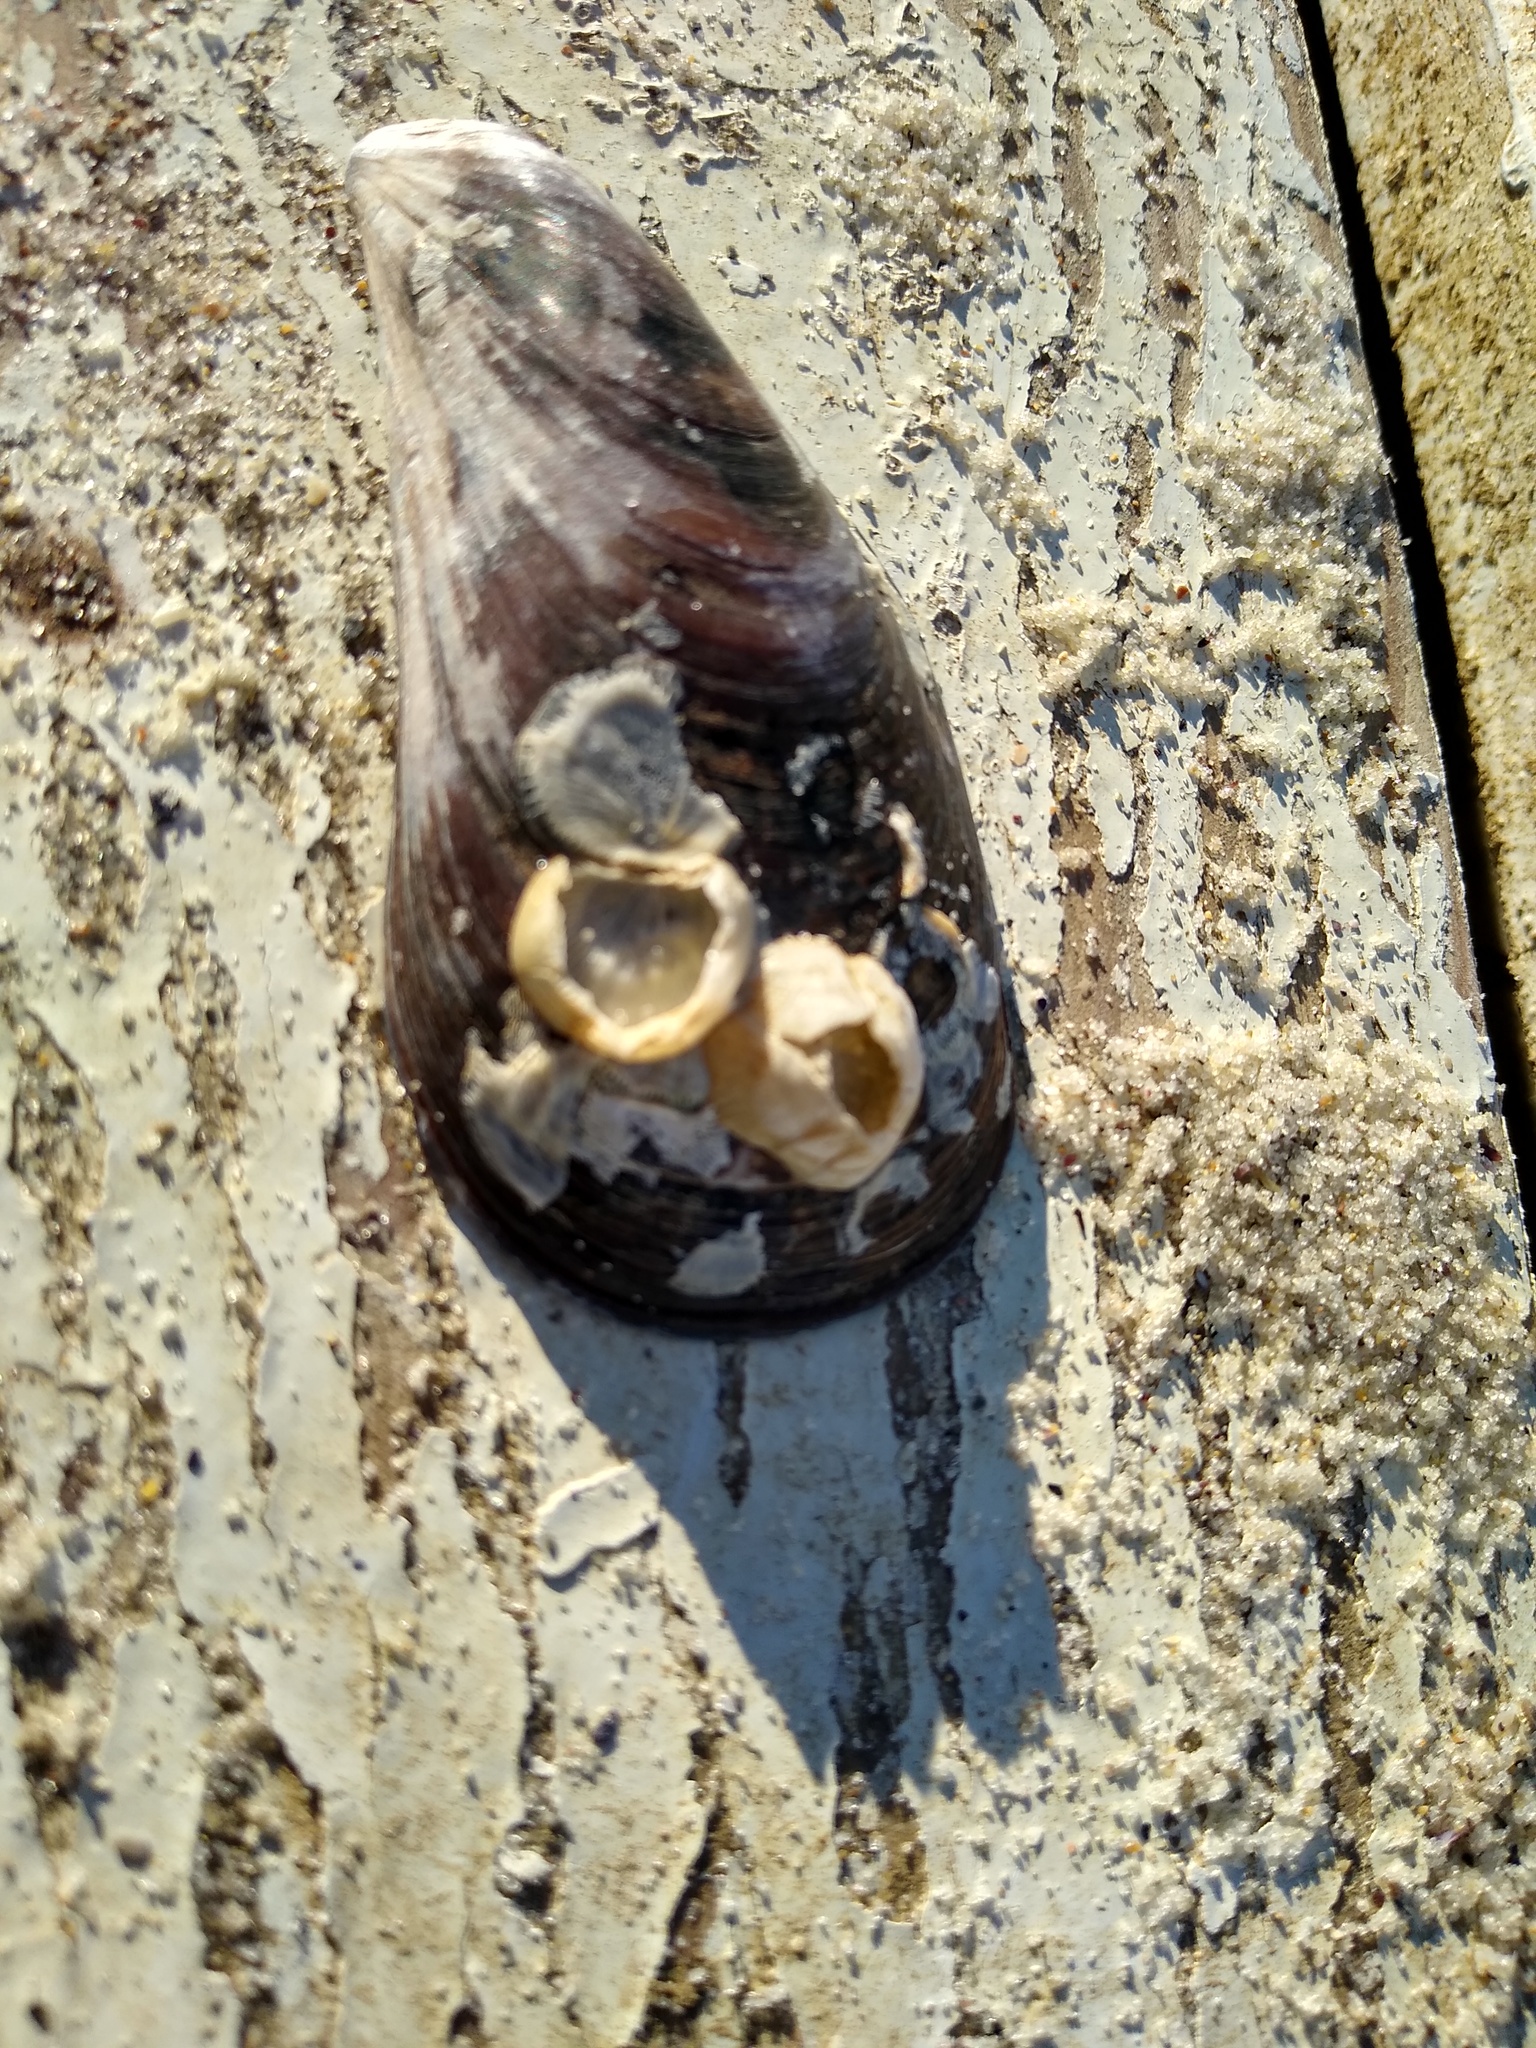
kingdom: Animalia
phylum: Arthropoda
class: Maxillopoda
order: Sessilia
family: Balanidae
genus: Amphibalanus
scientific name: Amphibalanus improvisus
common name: Bay barnacle
